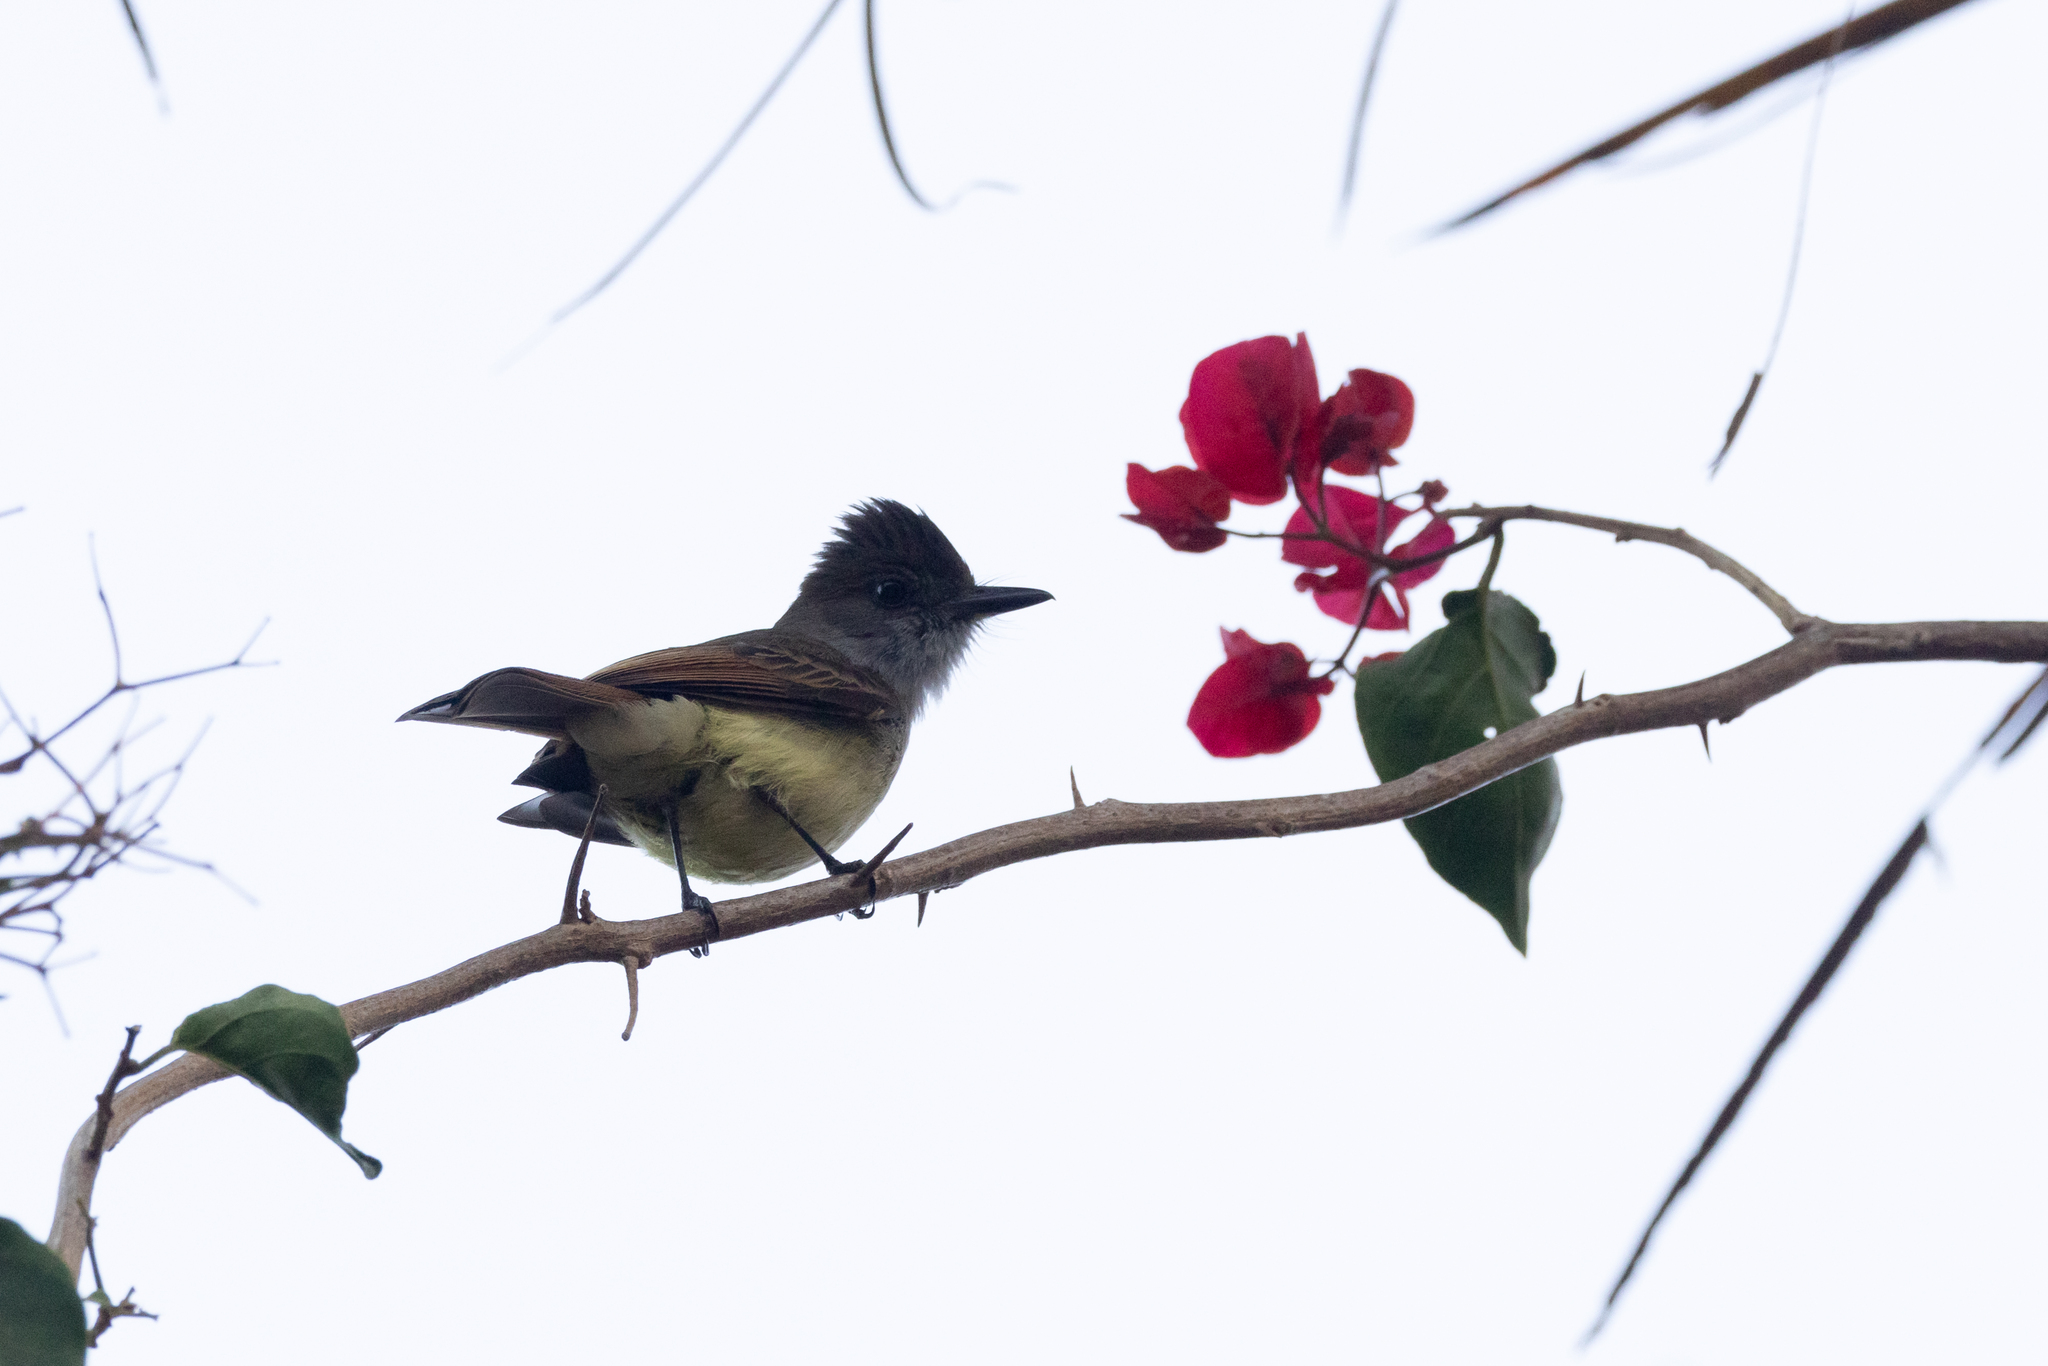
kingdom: Animalia
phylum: Chordata
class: Aves
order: Passeriformes
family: Tyrannidae
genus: Myiarchus
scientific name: Myiarchus tuberculifer
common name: Dusky-capped flycatcher
